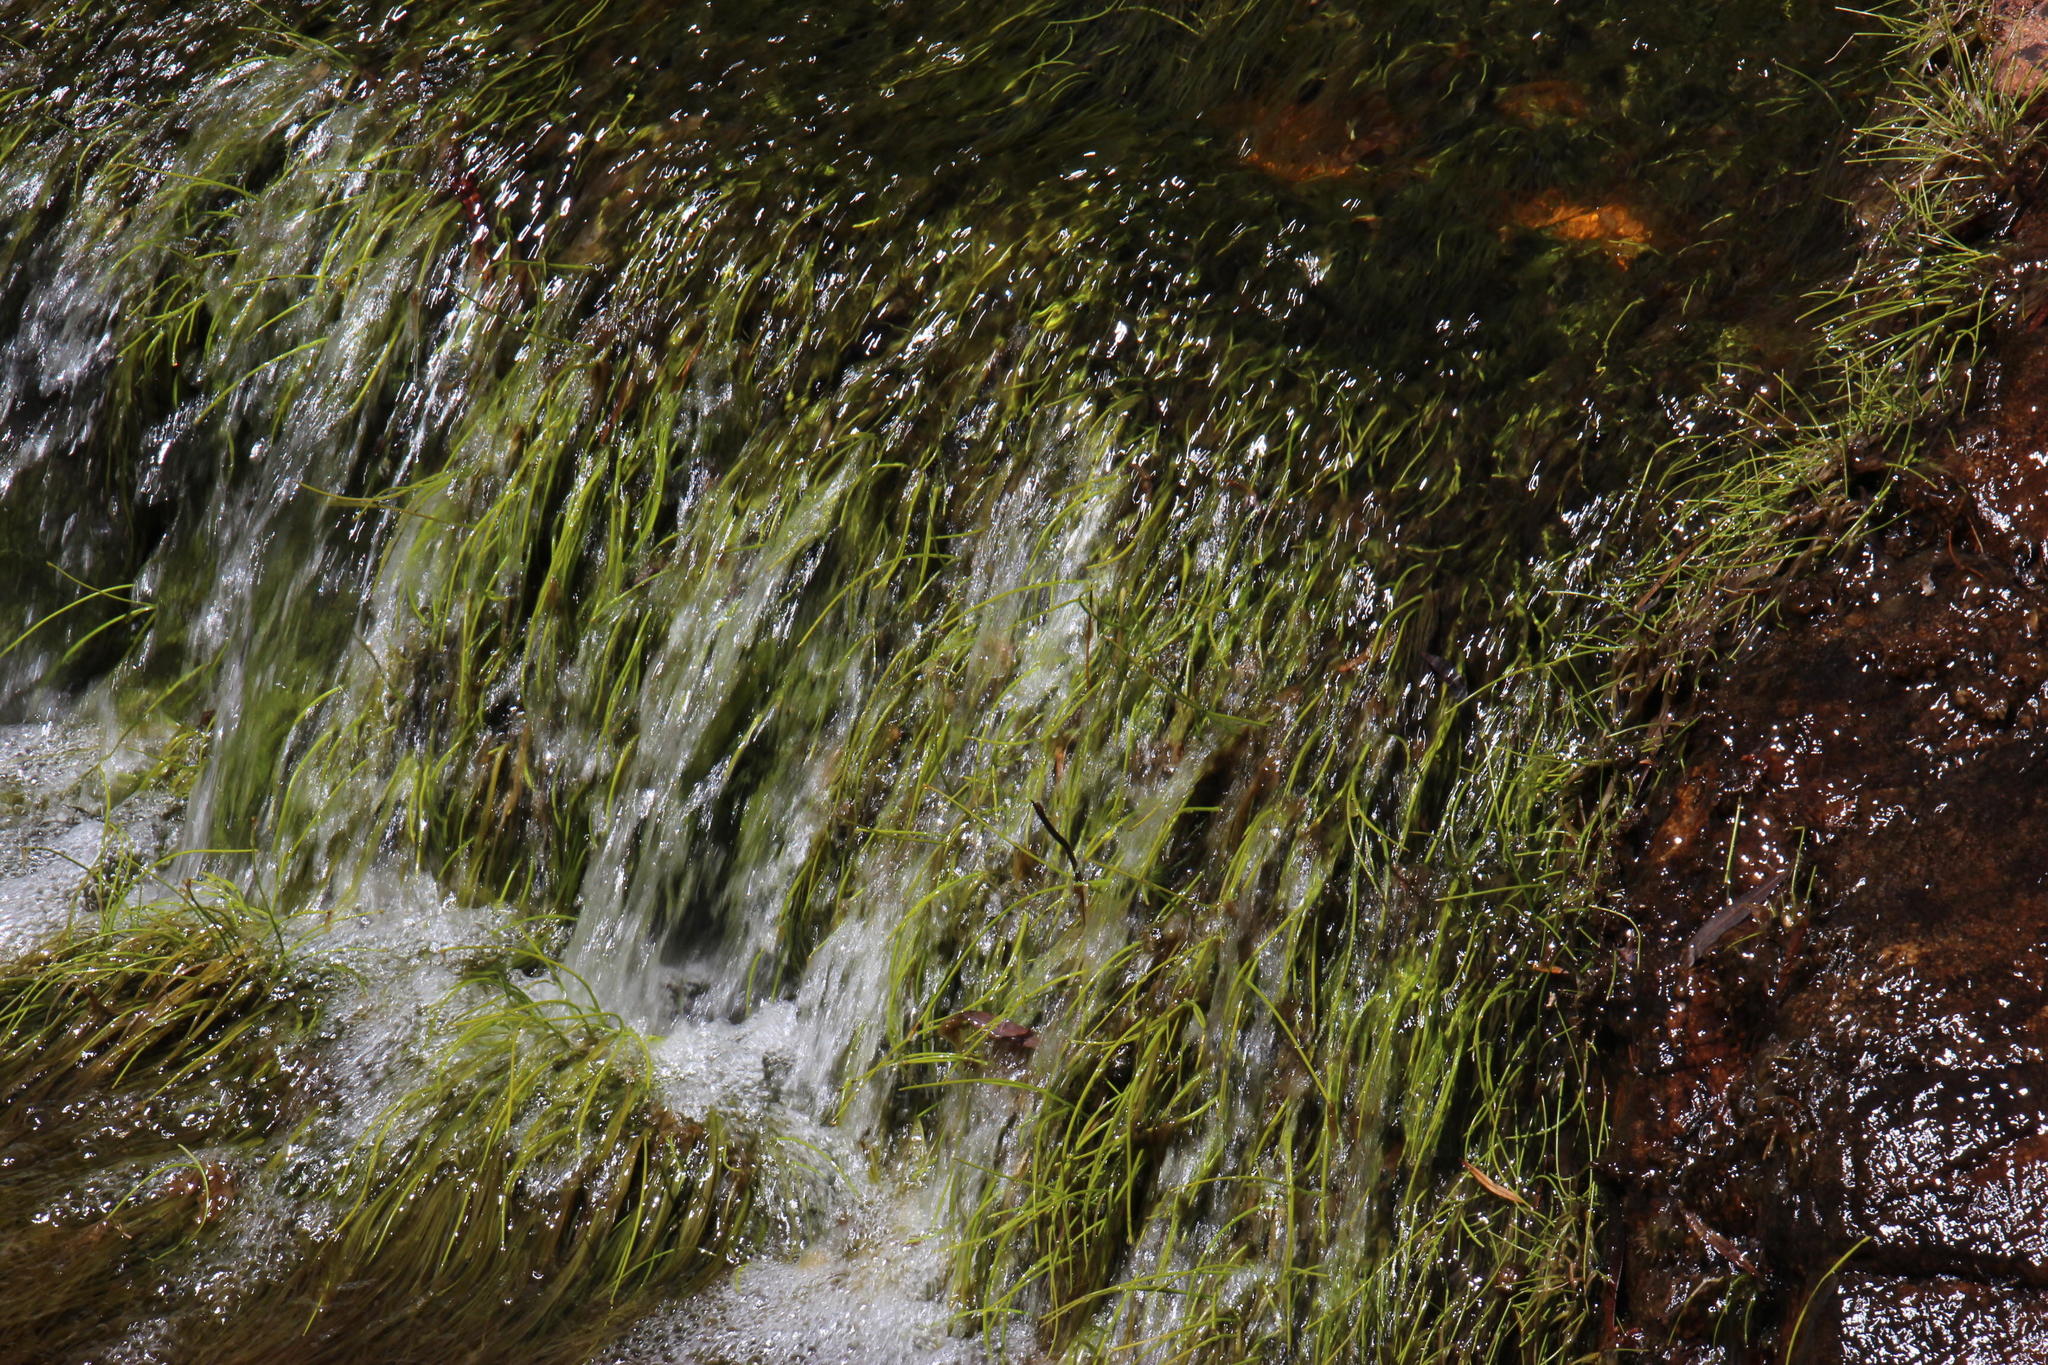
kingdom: Plantae
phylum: Tracheophyta
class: Liliopsida
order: Poales
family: Cyperaceae
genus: Isolepis
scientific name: Isolepis digitata
